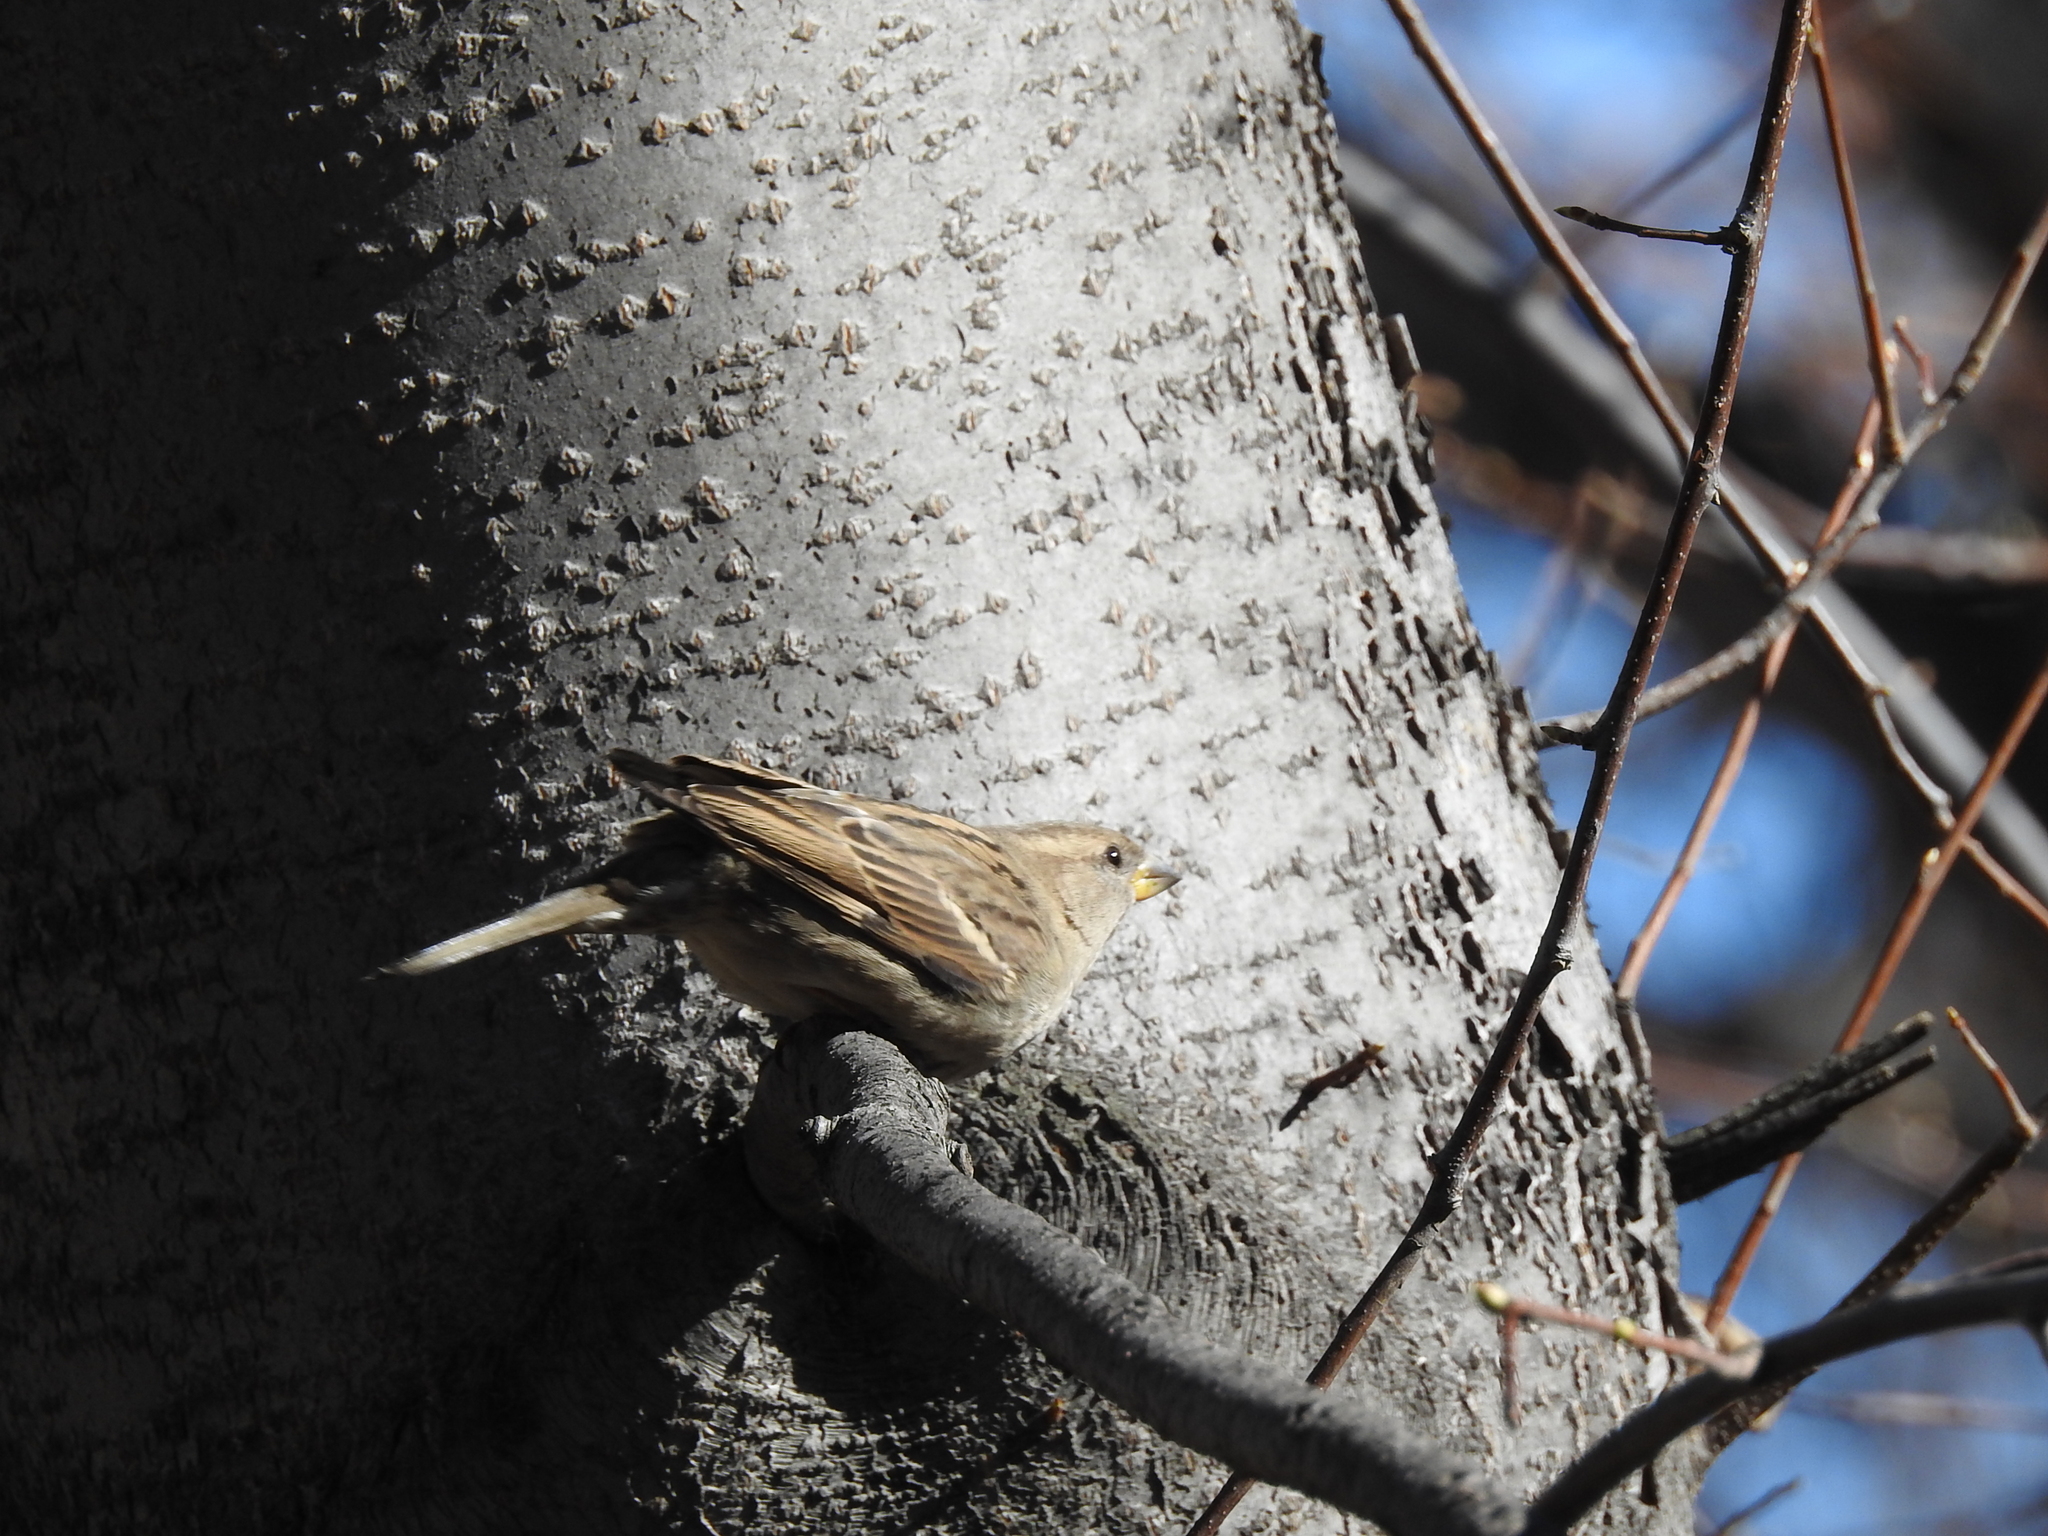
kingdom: Animalia
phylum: Chordata
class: Aves
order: Passeriformes
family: Passeridae
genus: Passer
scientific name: Passer domesticus
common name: House sparrow
